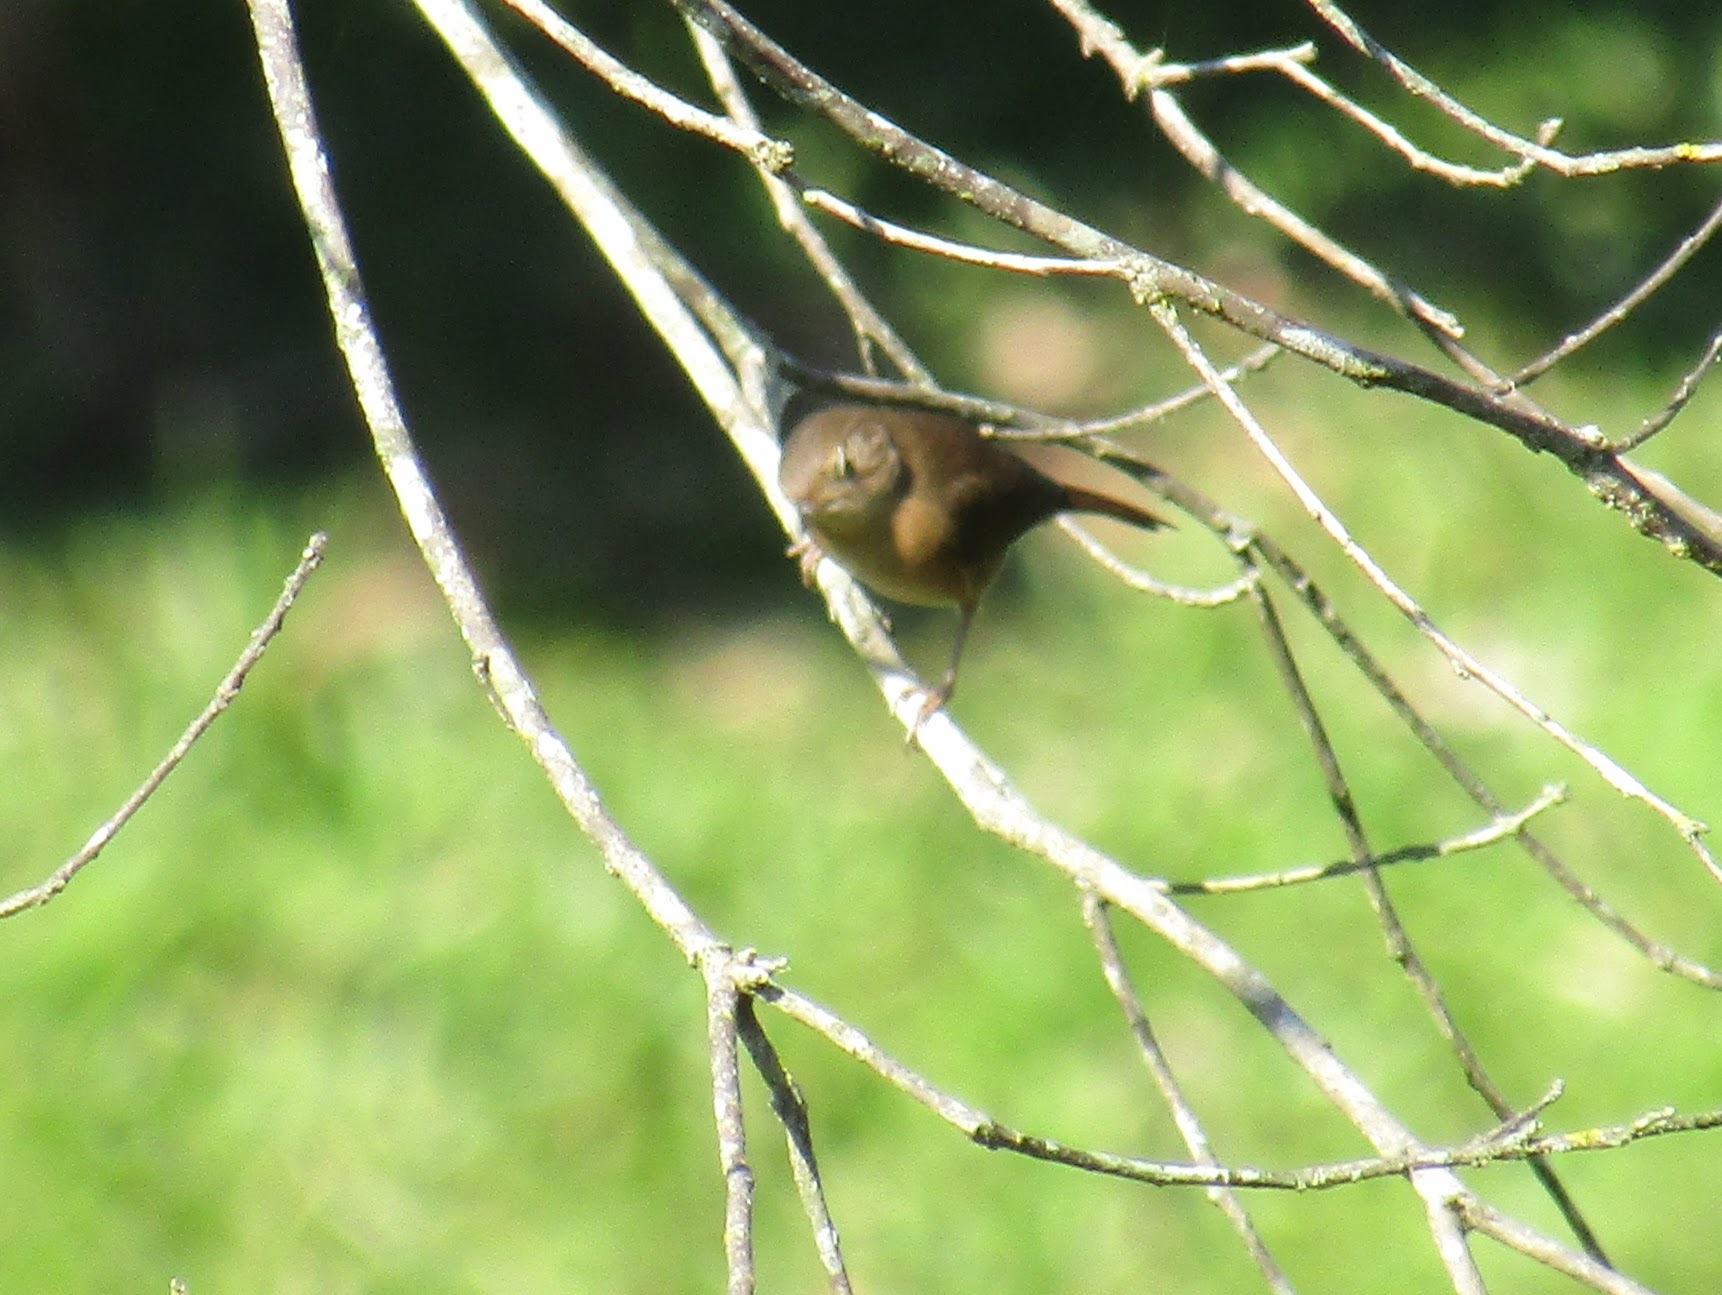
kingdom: Animalia
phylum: Chordata
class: Aves
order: Passeriformes
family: Troglodytidae
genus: Troglodytes
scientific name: Troglodytes aedon
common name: House wren
